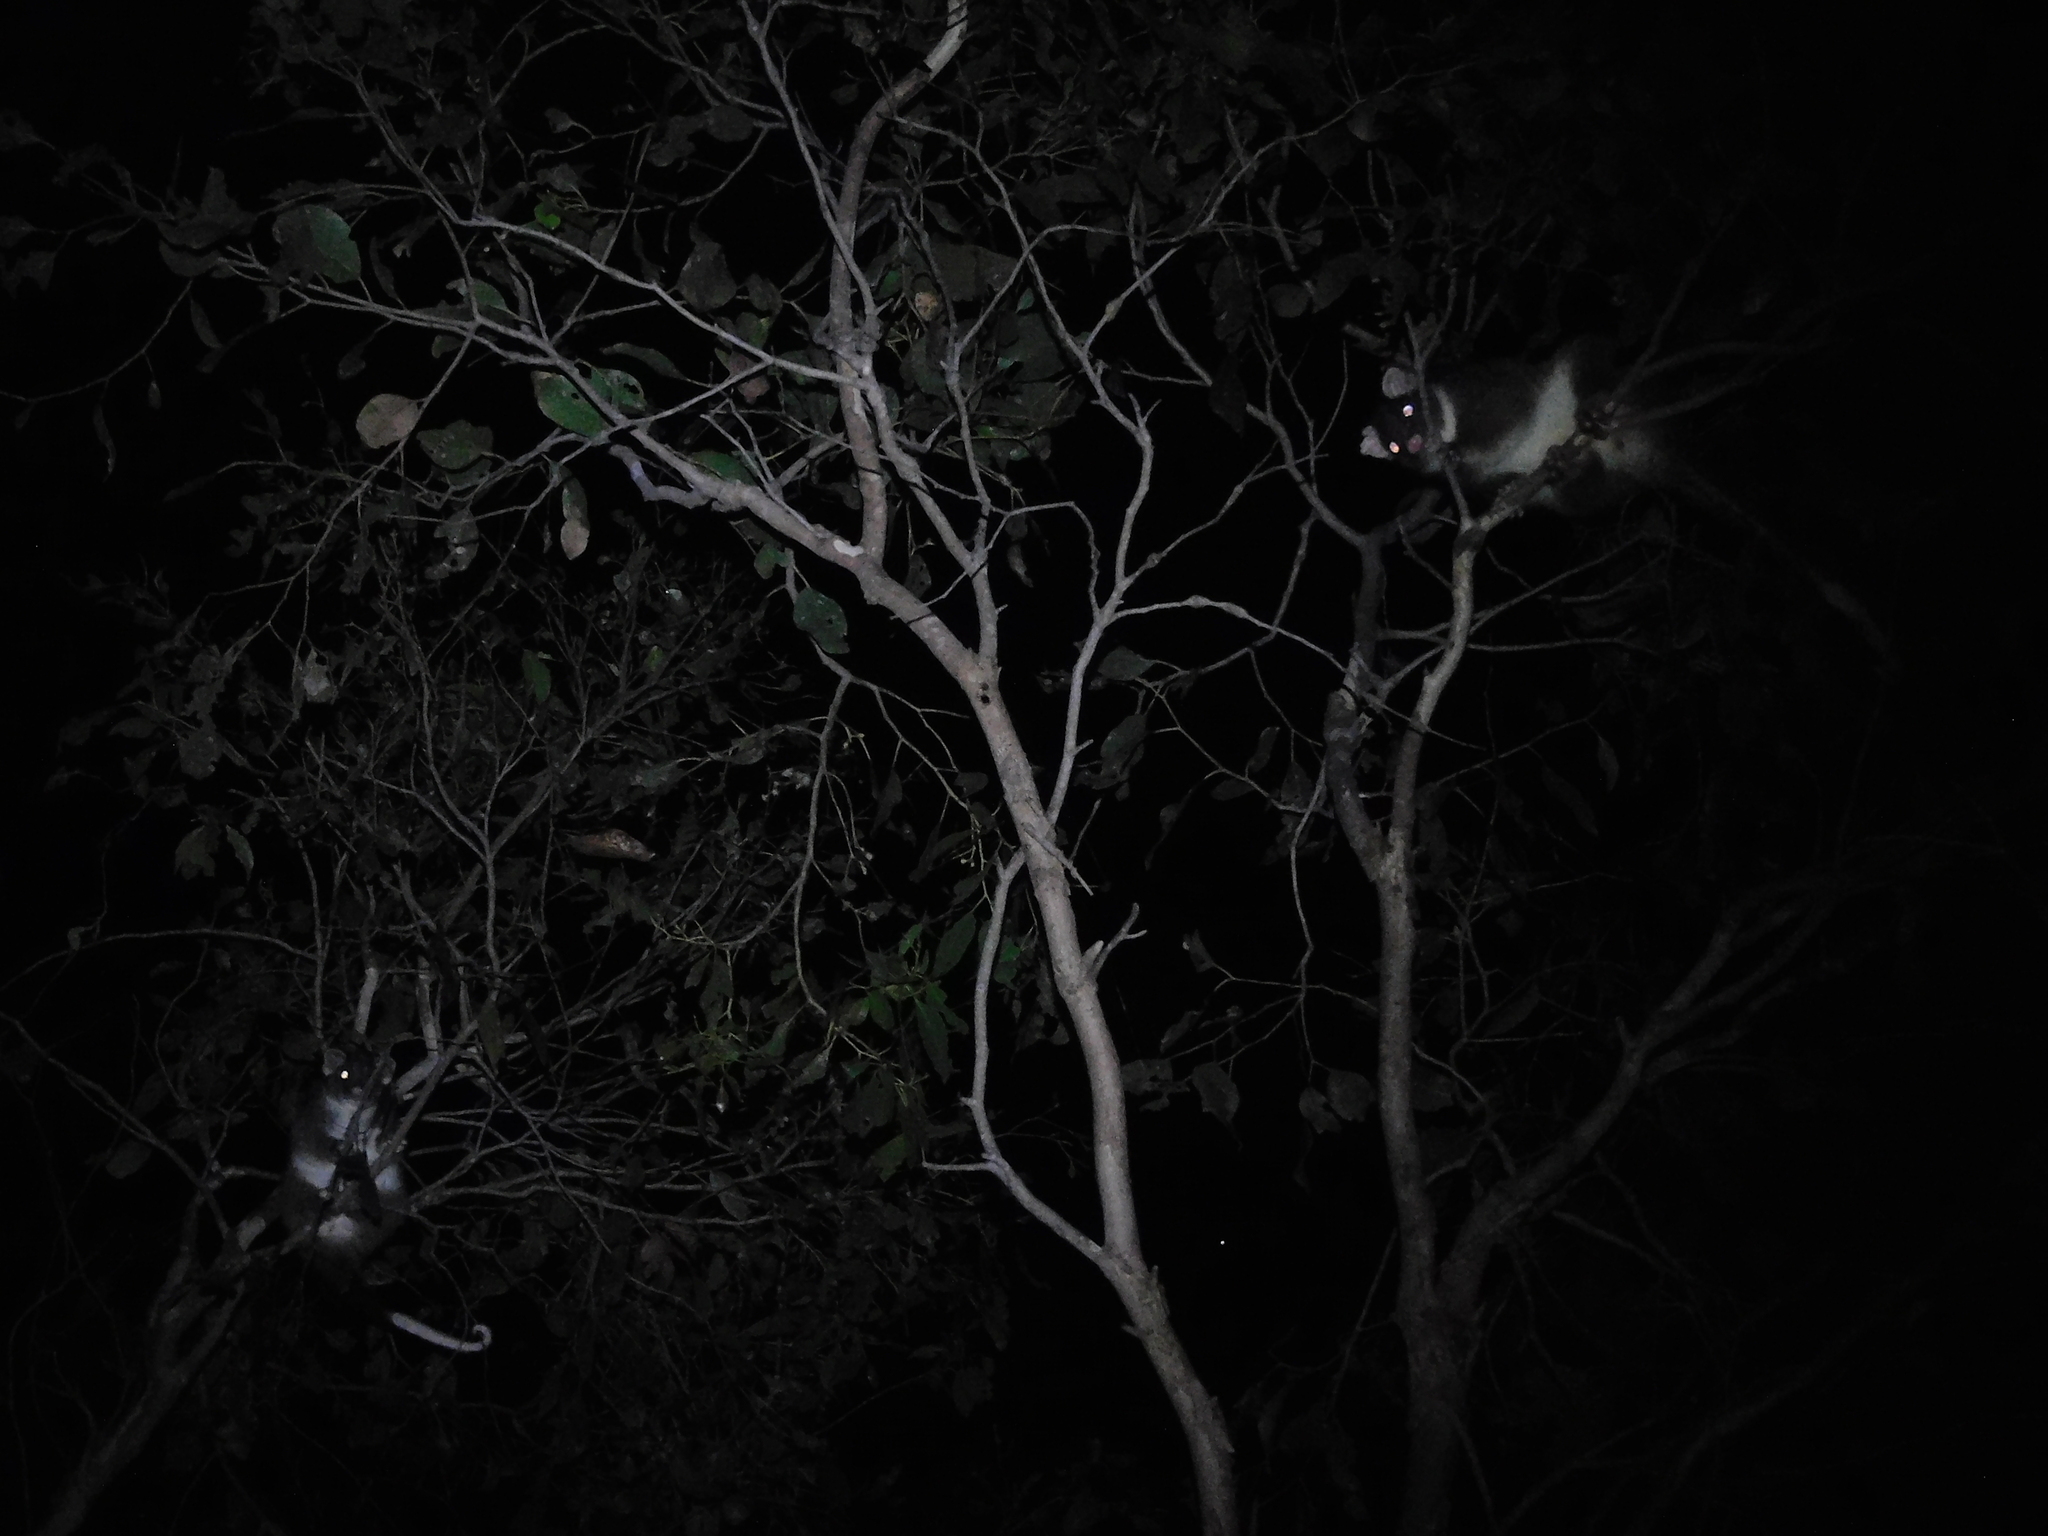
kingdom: Animalia
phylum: Chordata
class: Mammalia
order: Diprotodontia
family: Pseudocheiridae
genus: Pseudocheirus
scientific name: Pseudocheirus peregrinus
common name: Common ringtail possum
